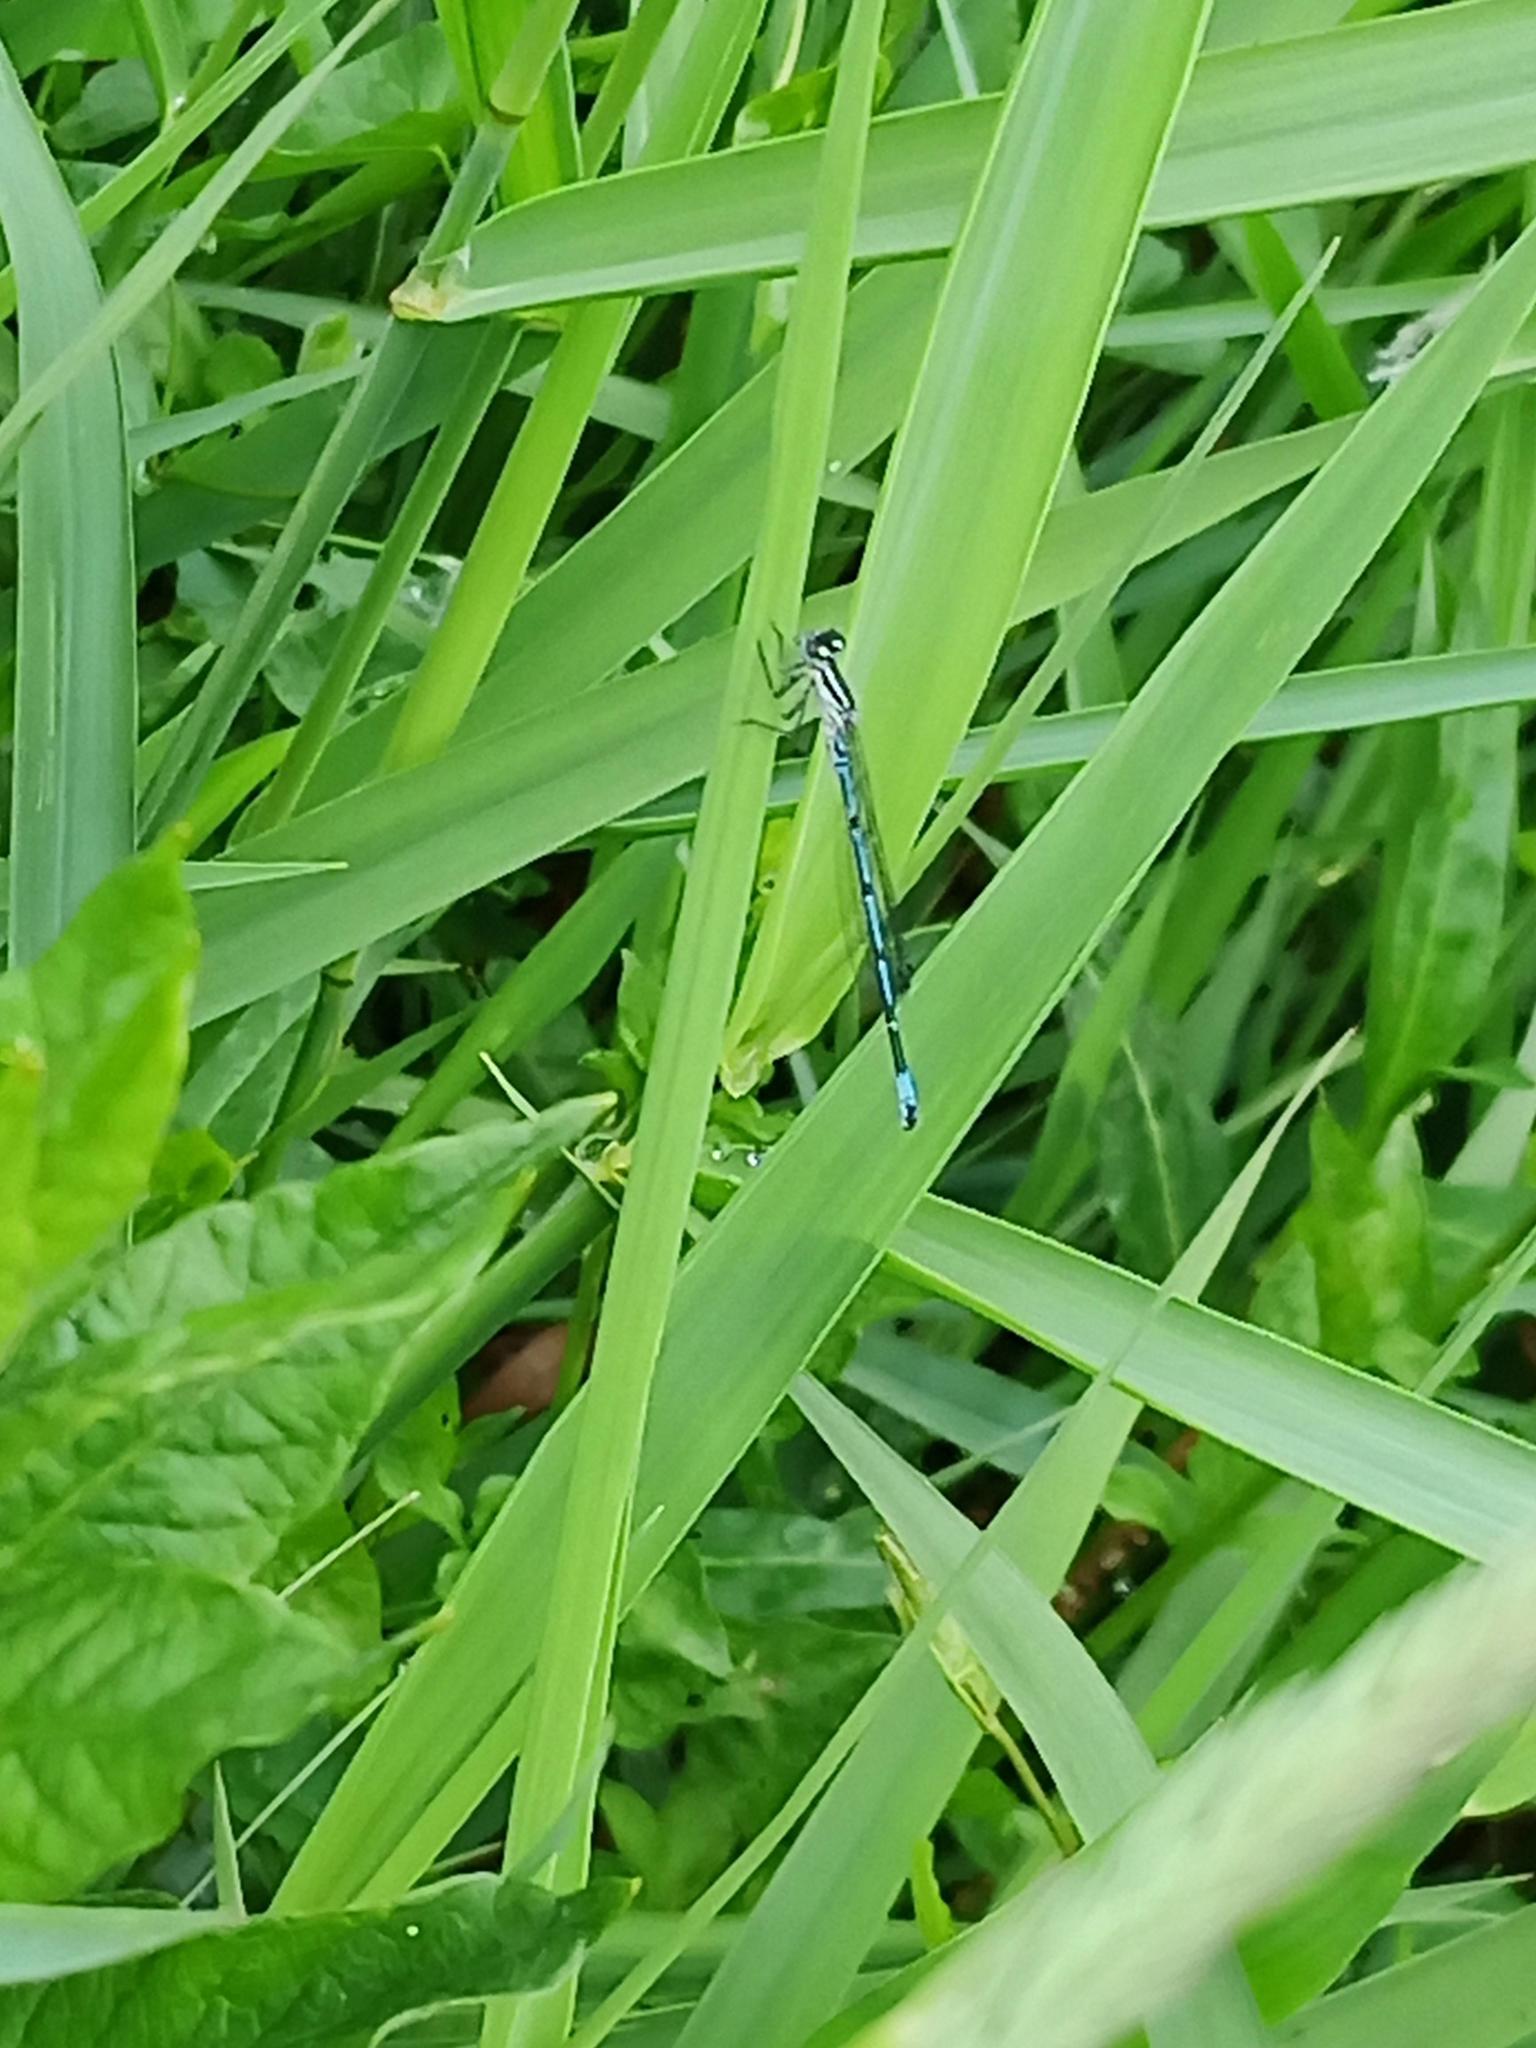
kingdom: Animalia
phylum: Arthropoda
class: Insecta
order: Odonata
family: Coenagrionidae
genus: Coenagrion
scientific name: Coenagrion puella
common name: Azure damselfly
